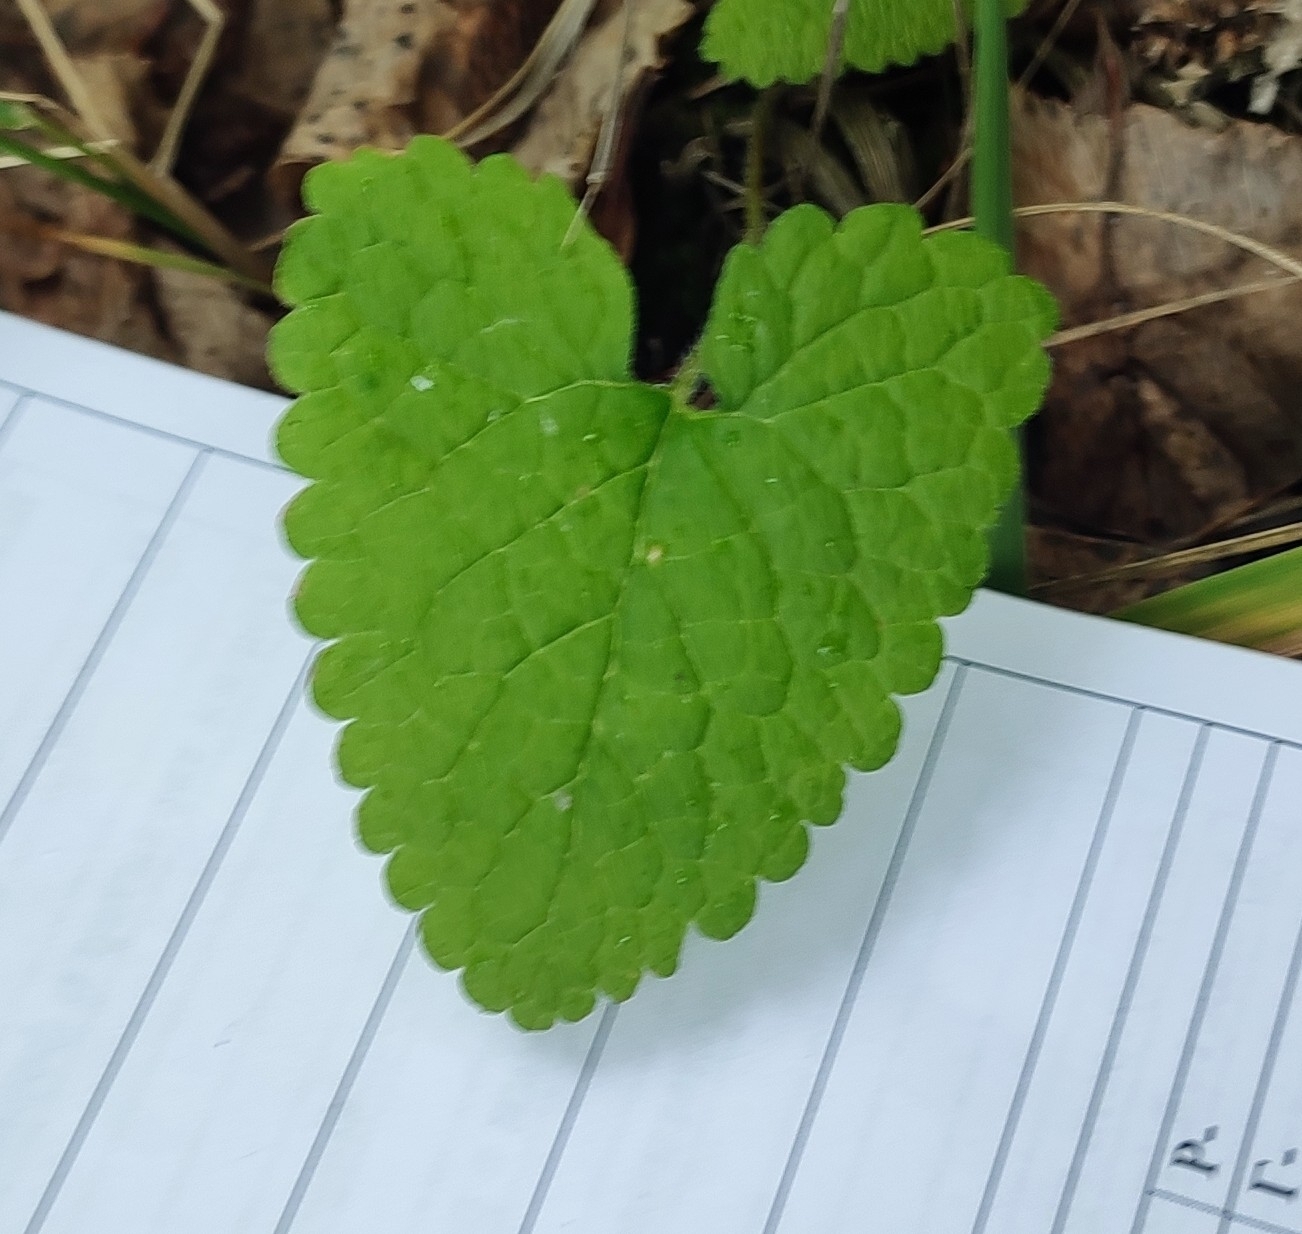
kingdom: Plantae
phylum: Tracheophyta
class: Magnoliopsida
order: Lamiales
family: Lamiaceae
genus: Phlomoides
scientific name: Phlomoides tuberosa
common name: Tuberous jerusalem sage
